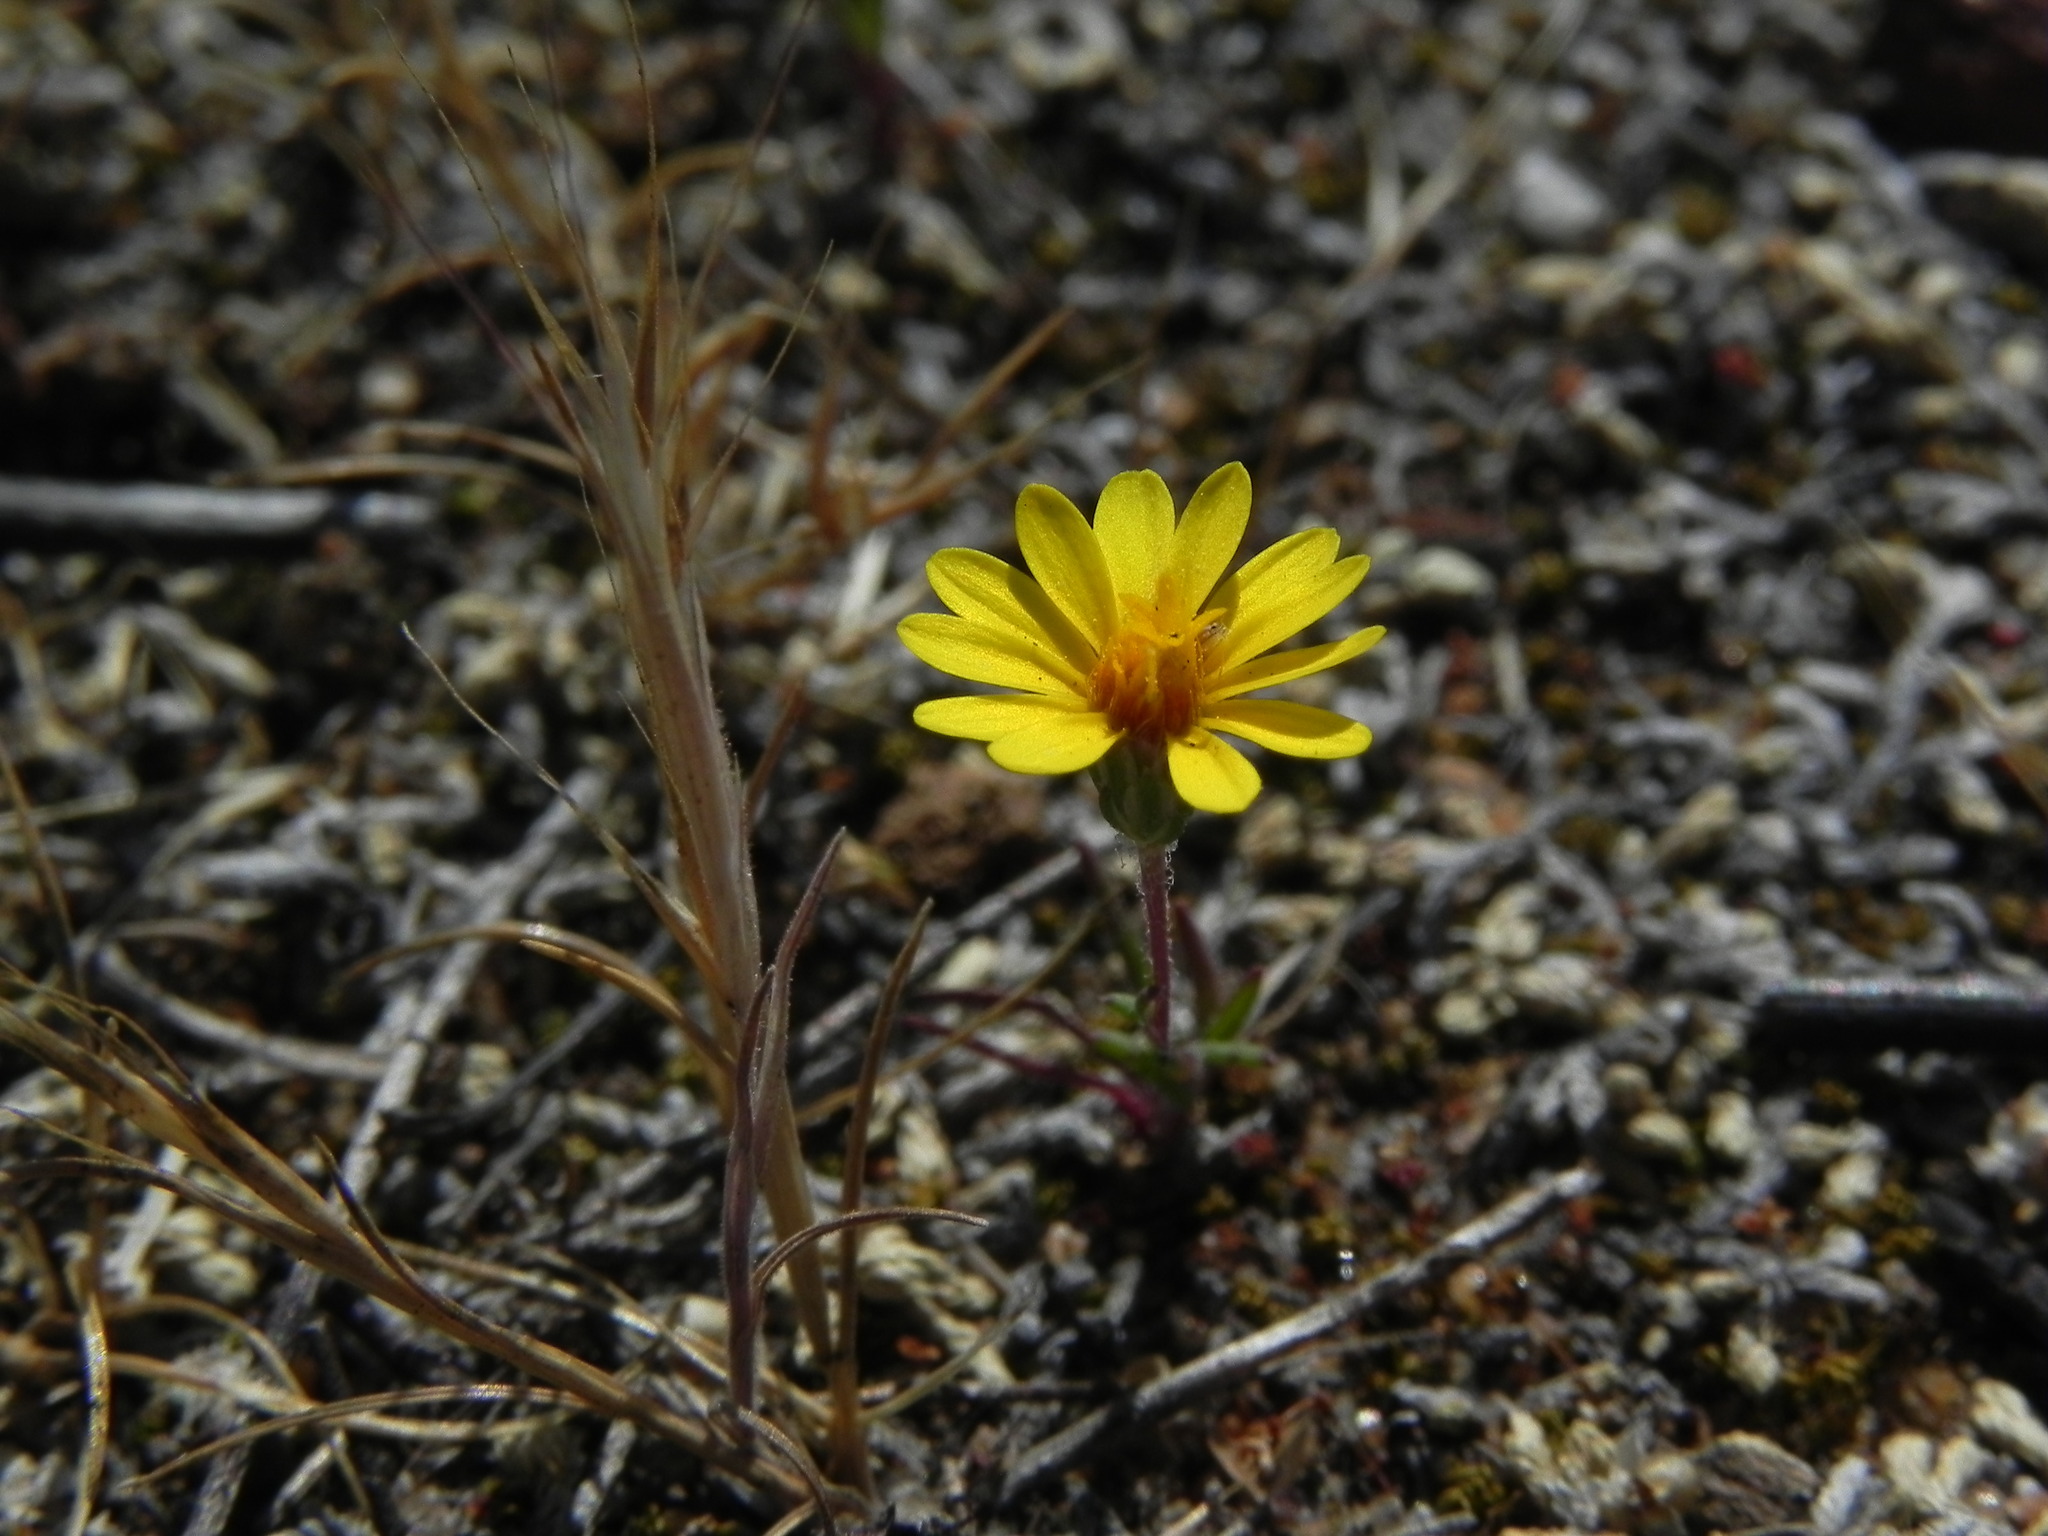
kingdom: Plantae
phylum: Tracheophyta
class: Magnoliopsida
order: Asterales
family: Asteraceae
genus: Pentachaeta
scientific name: Pentachaeta aurea
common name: Golden-ray pentachaeta
